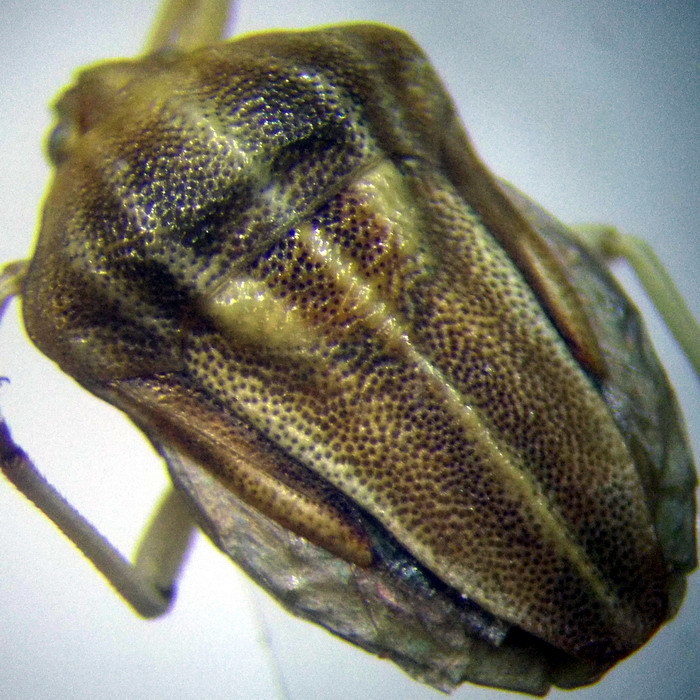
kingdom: Animalia
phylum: Arthropoda
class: Insecta
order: Hemiptera
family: Pentatomidae
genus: Tholagmus
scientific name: Tholagmus flavolineatus
